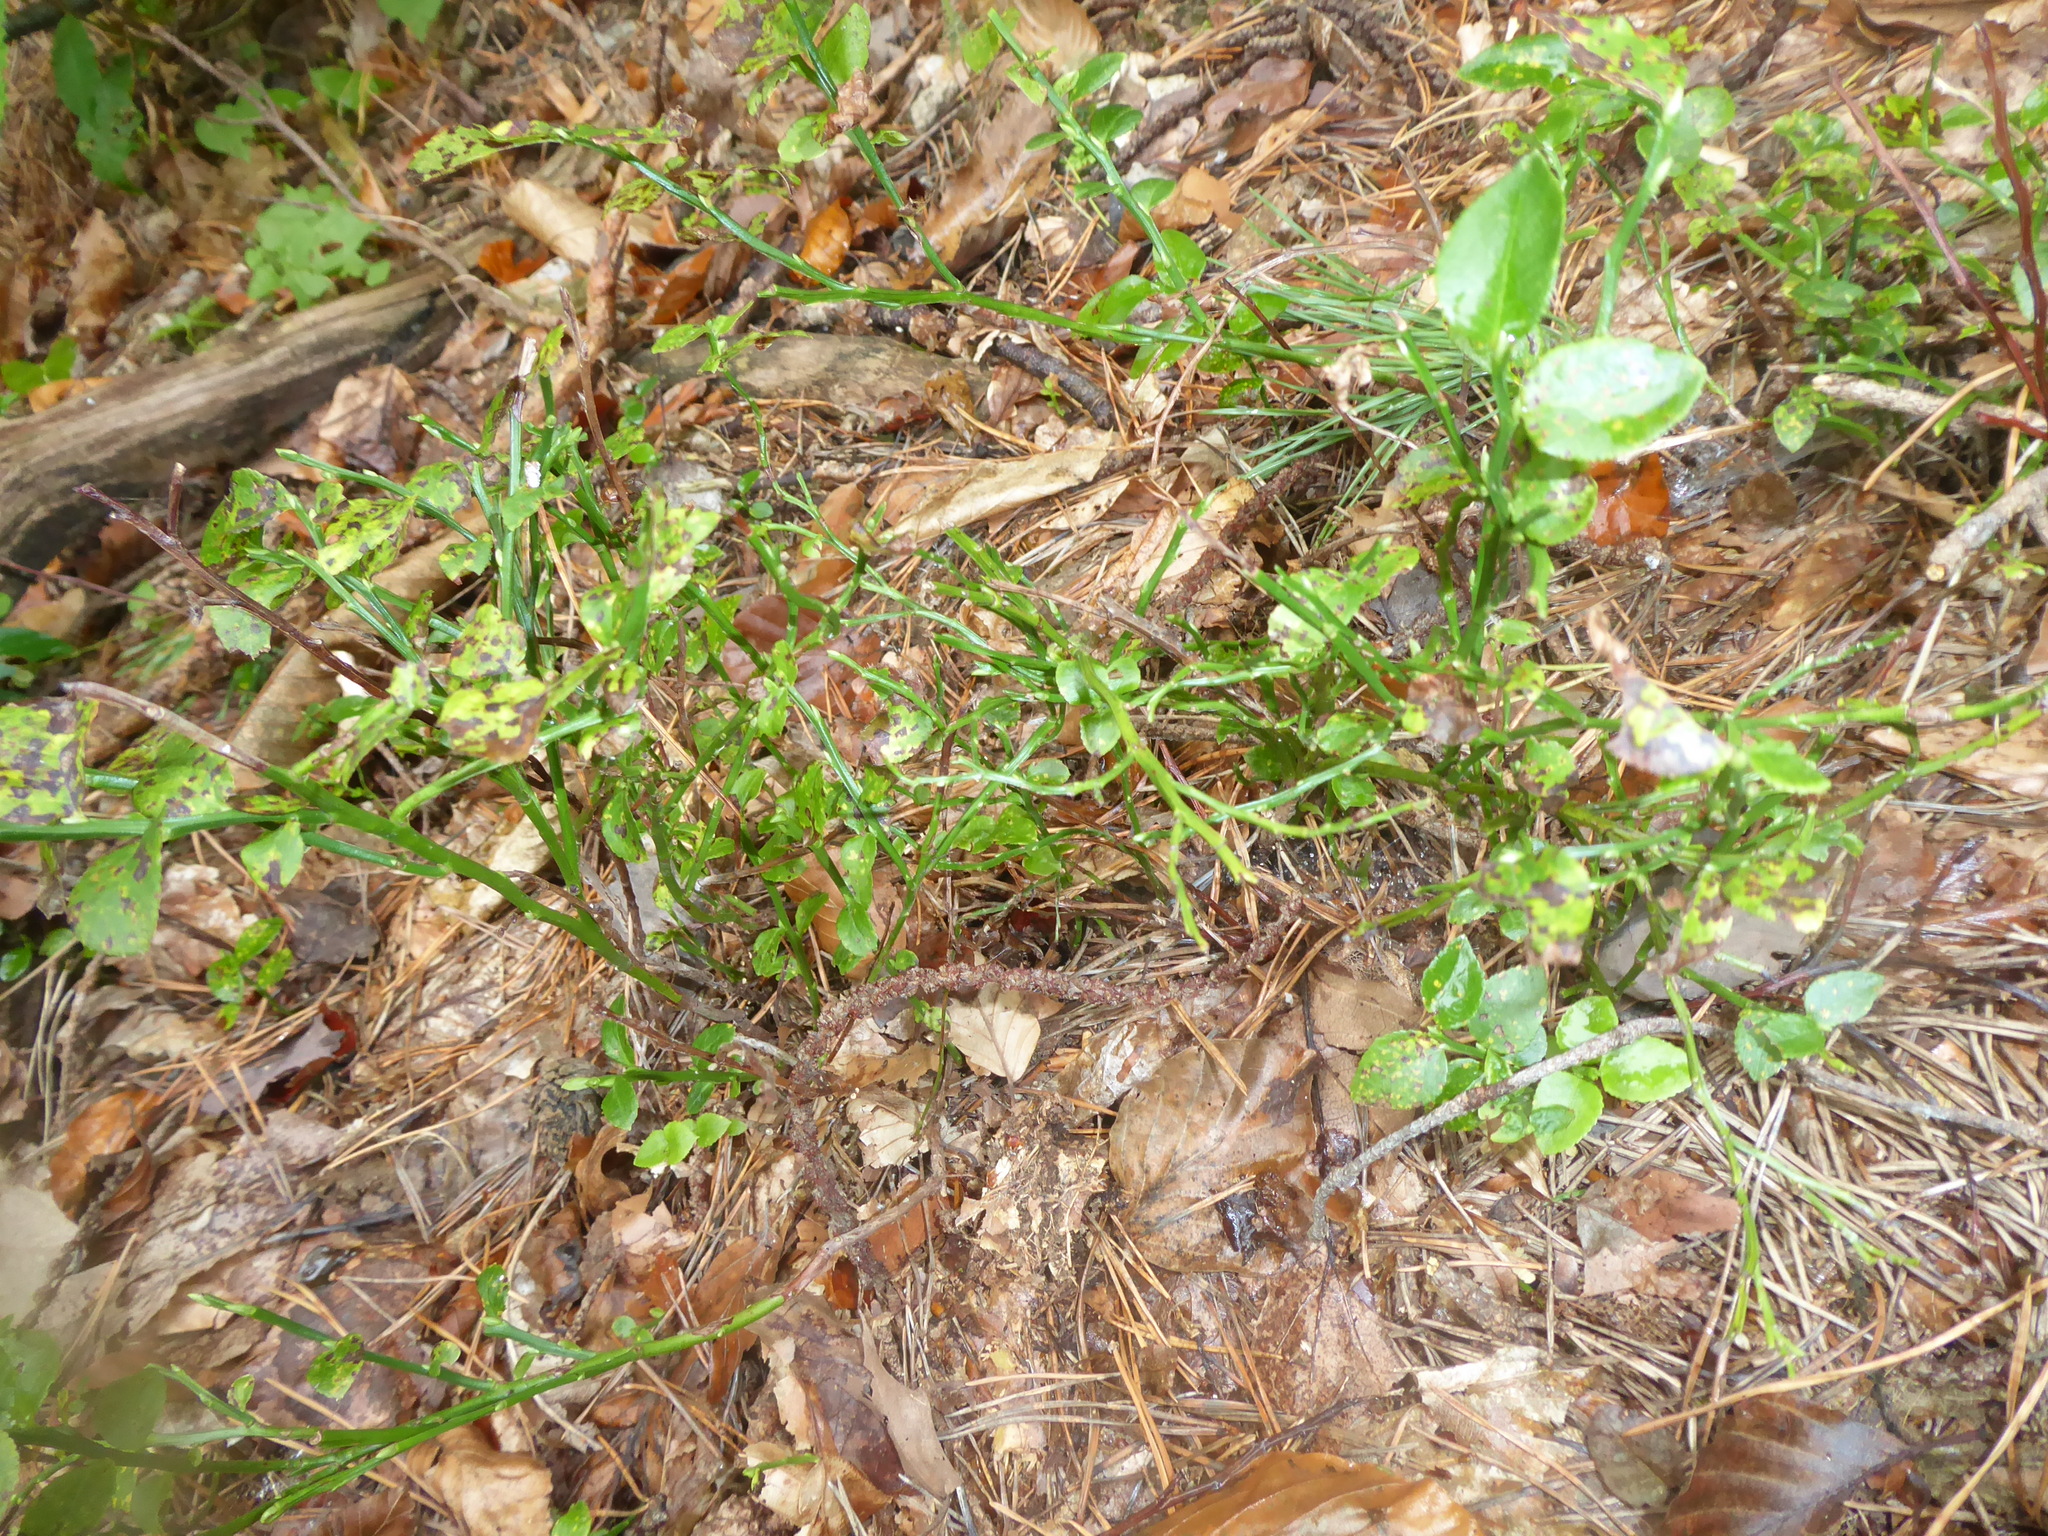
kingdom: Plantae
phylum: Tracheophyta
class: Magnoliopsida
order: Ericales
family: Ericaceae
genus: Vaccinium
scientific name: Vaccinium myrtillus
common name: Bilberry
